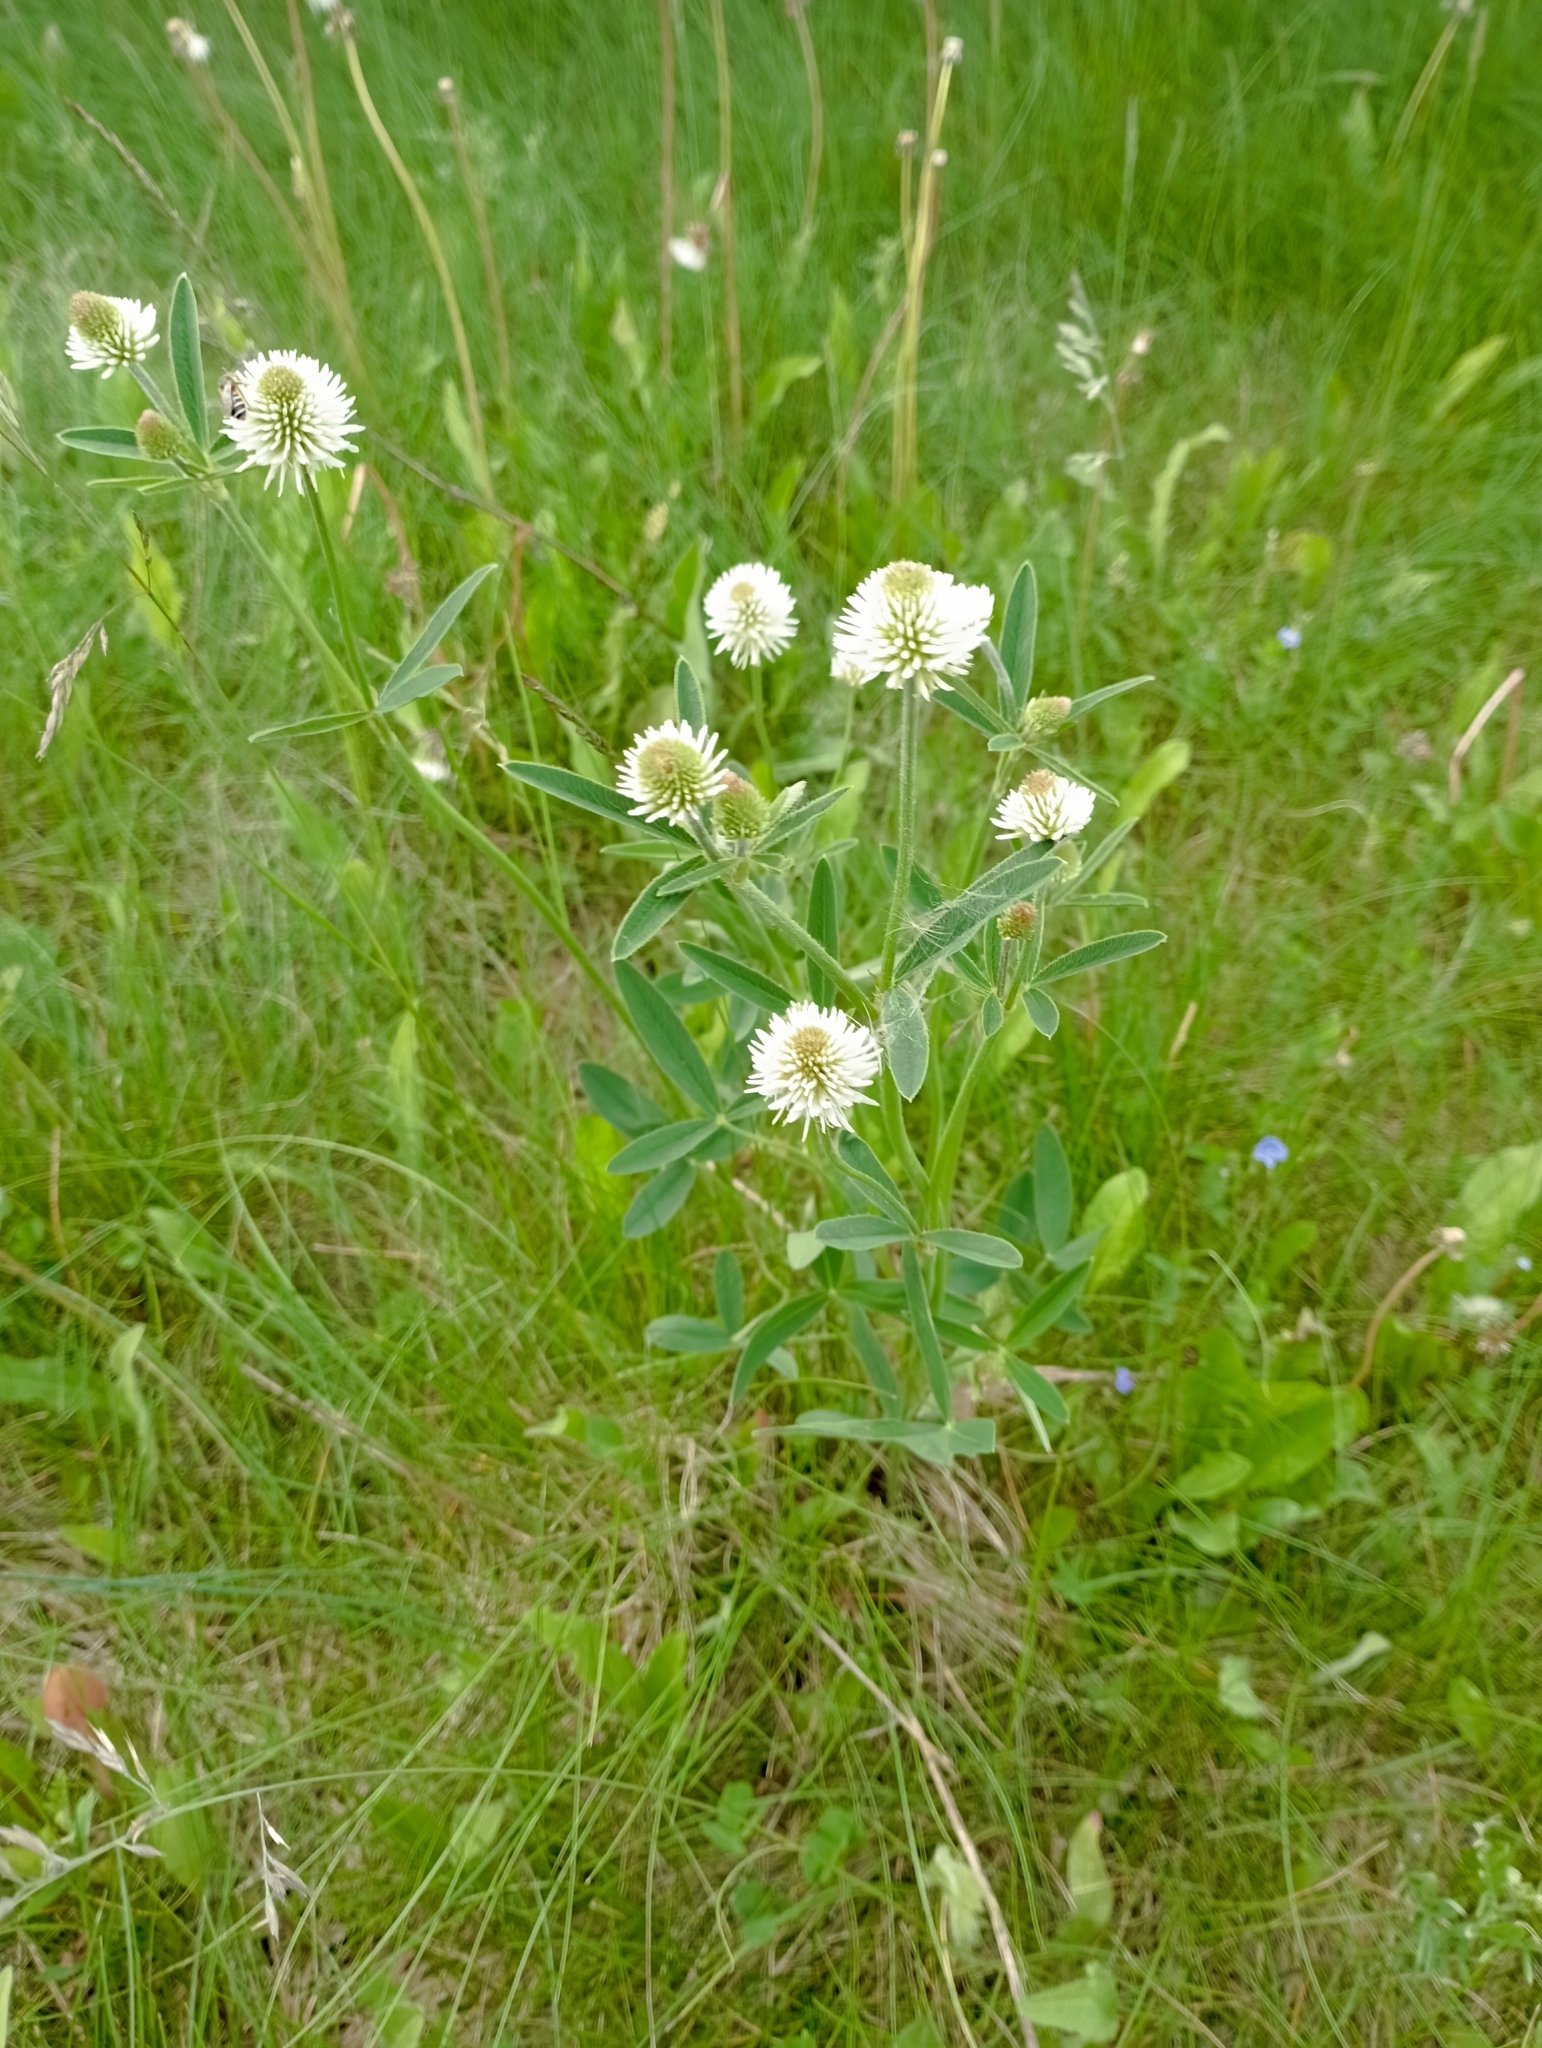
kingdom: Plantae
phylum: Tracheophyta
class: Magnoliopsida
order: Fabales
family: Fabaceae
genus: Trifolium
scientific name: Trifolium montanum
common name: Mountain clover
